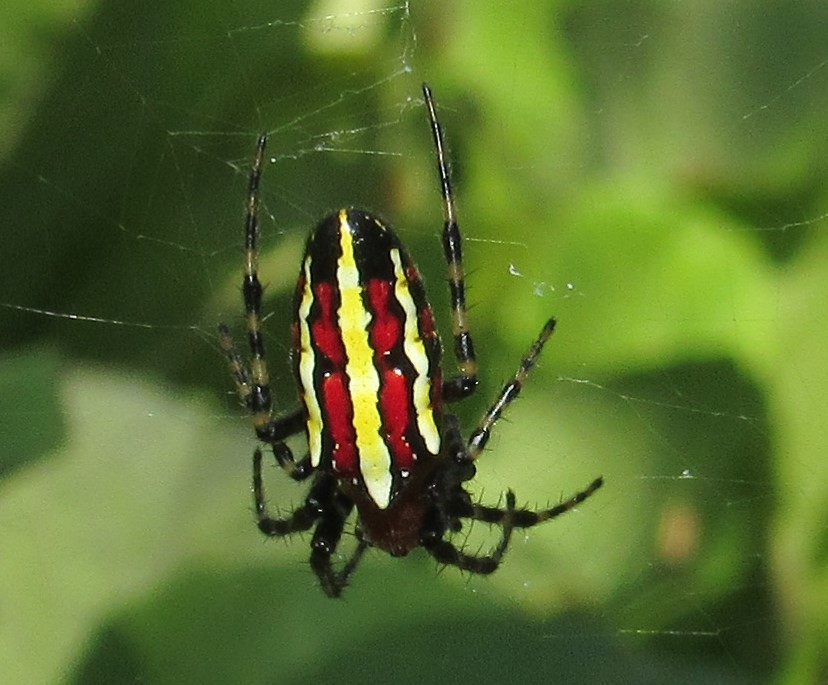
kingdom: Animalia
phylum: Arthropoda
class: Arachnida
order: Araneae
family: Araneidae
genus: Alpaida
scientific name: Alpaida grayi
